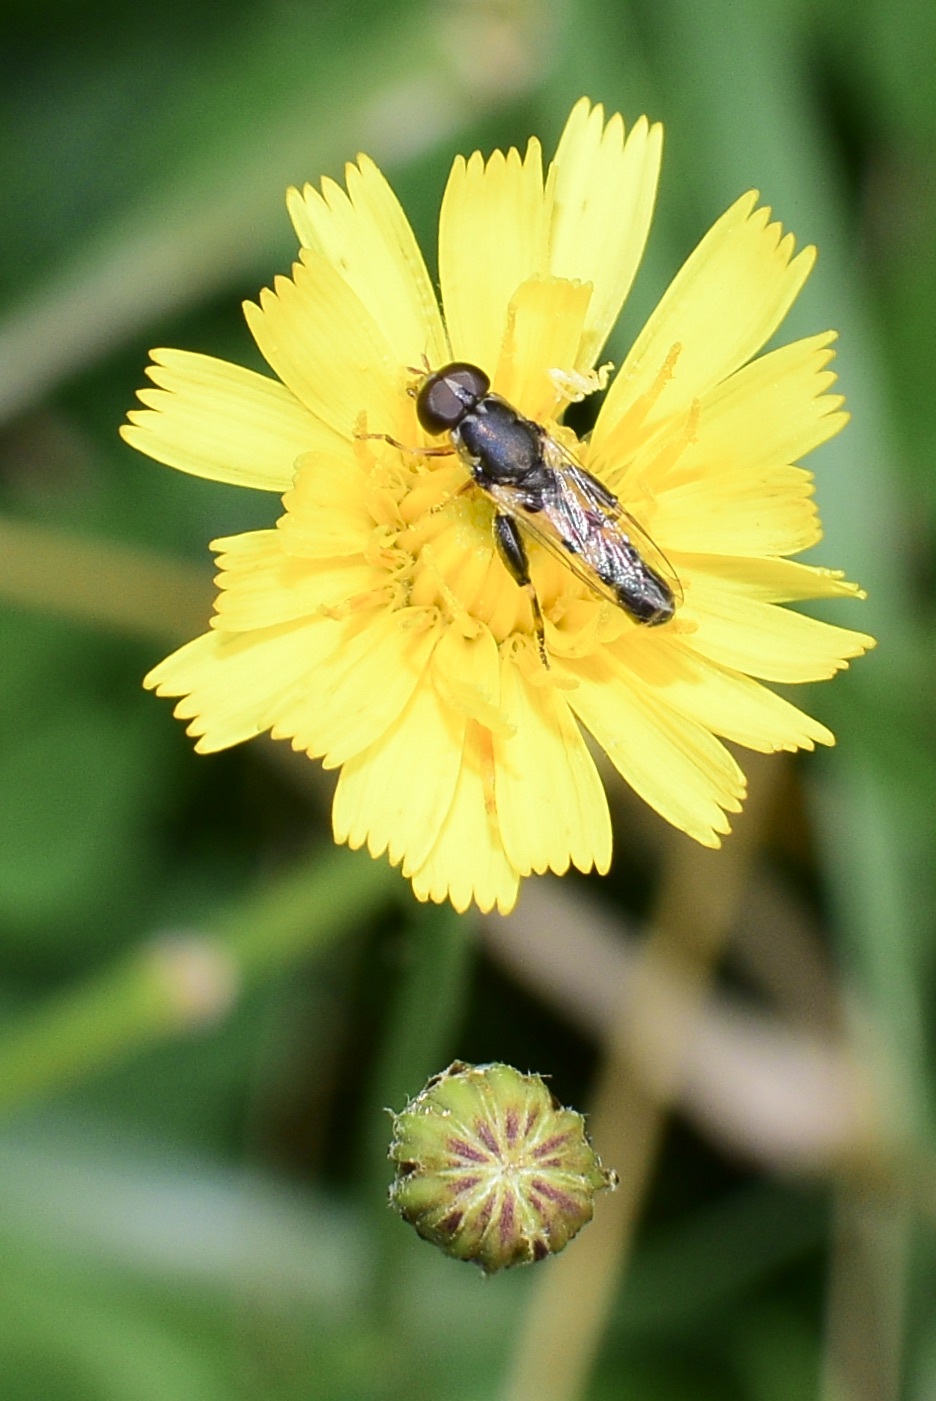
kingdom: Animalia
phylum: Arthropoda
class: Insecta
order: Diptera
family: Syrphidae
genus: Syritta
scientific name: Syritta pipiens
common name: Hover fly
